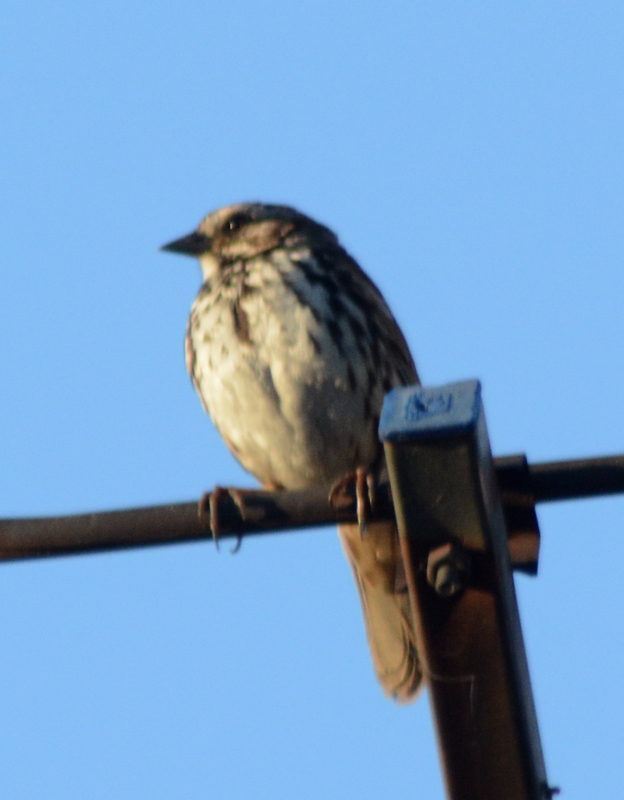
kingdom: Animalia
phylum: Chordata
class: Aves
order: Passeriformes
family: Passerellidae
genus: Melospiza
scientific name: Melospiza melodia
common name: Song sparrow
